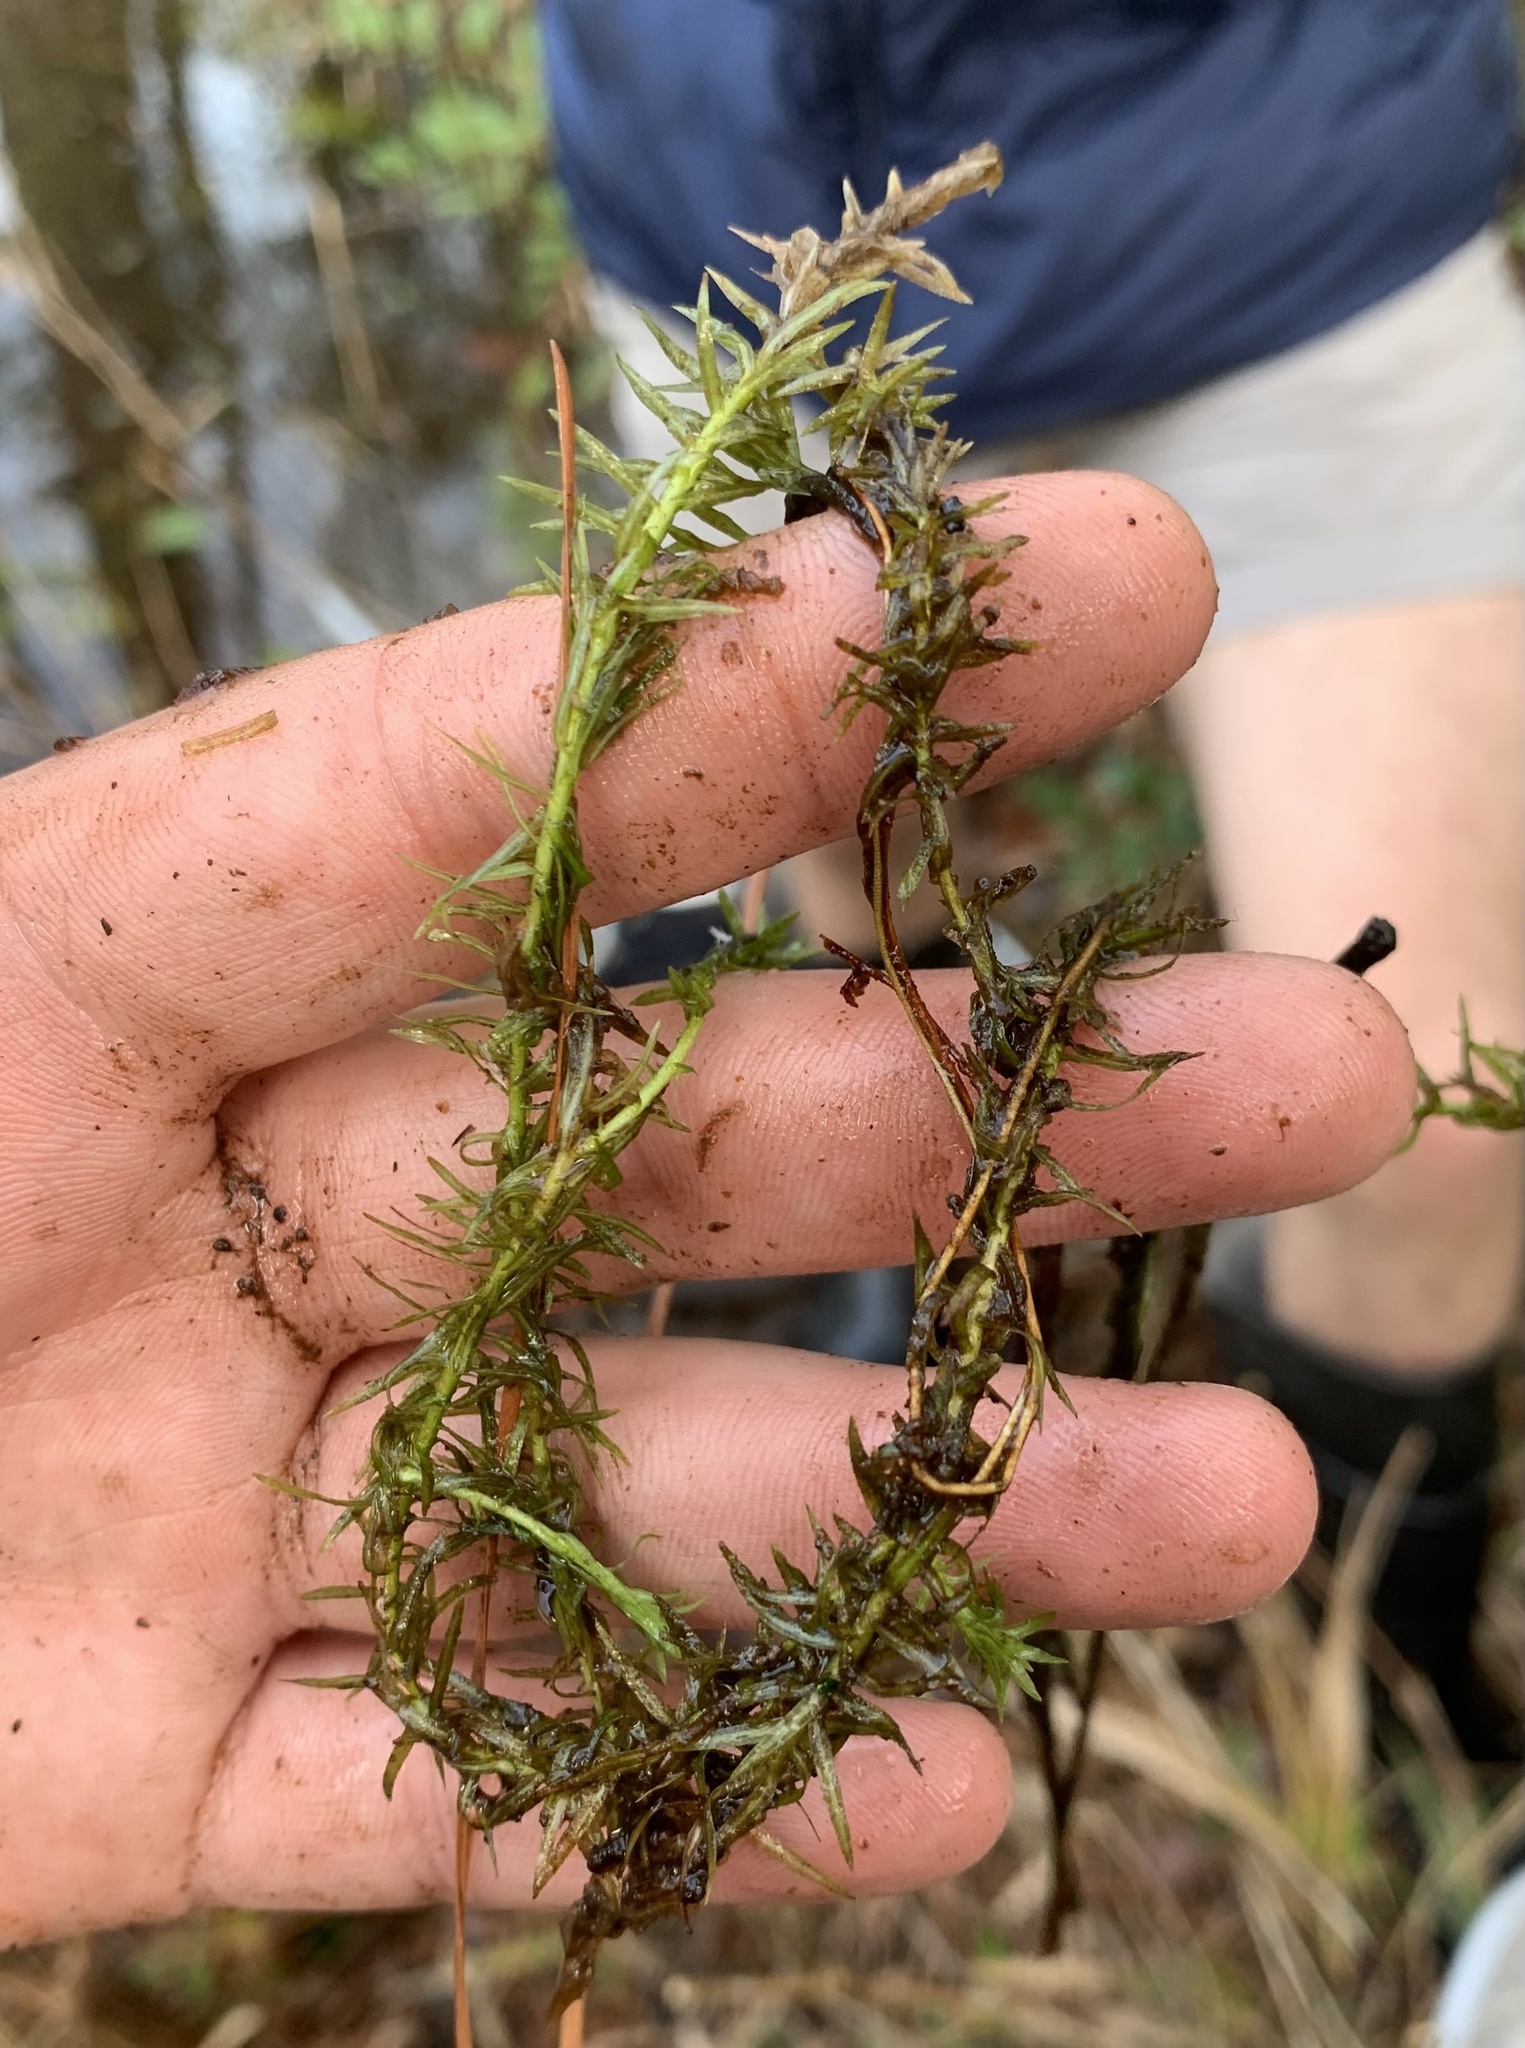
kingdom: Plantae
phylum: Tracheophyta
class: Liliopsida
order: Poales
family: Mayacaceae
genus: Mayaca
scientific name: Mayaca fluviatilis
